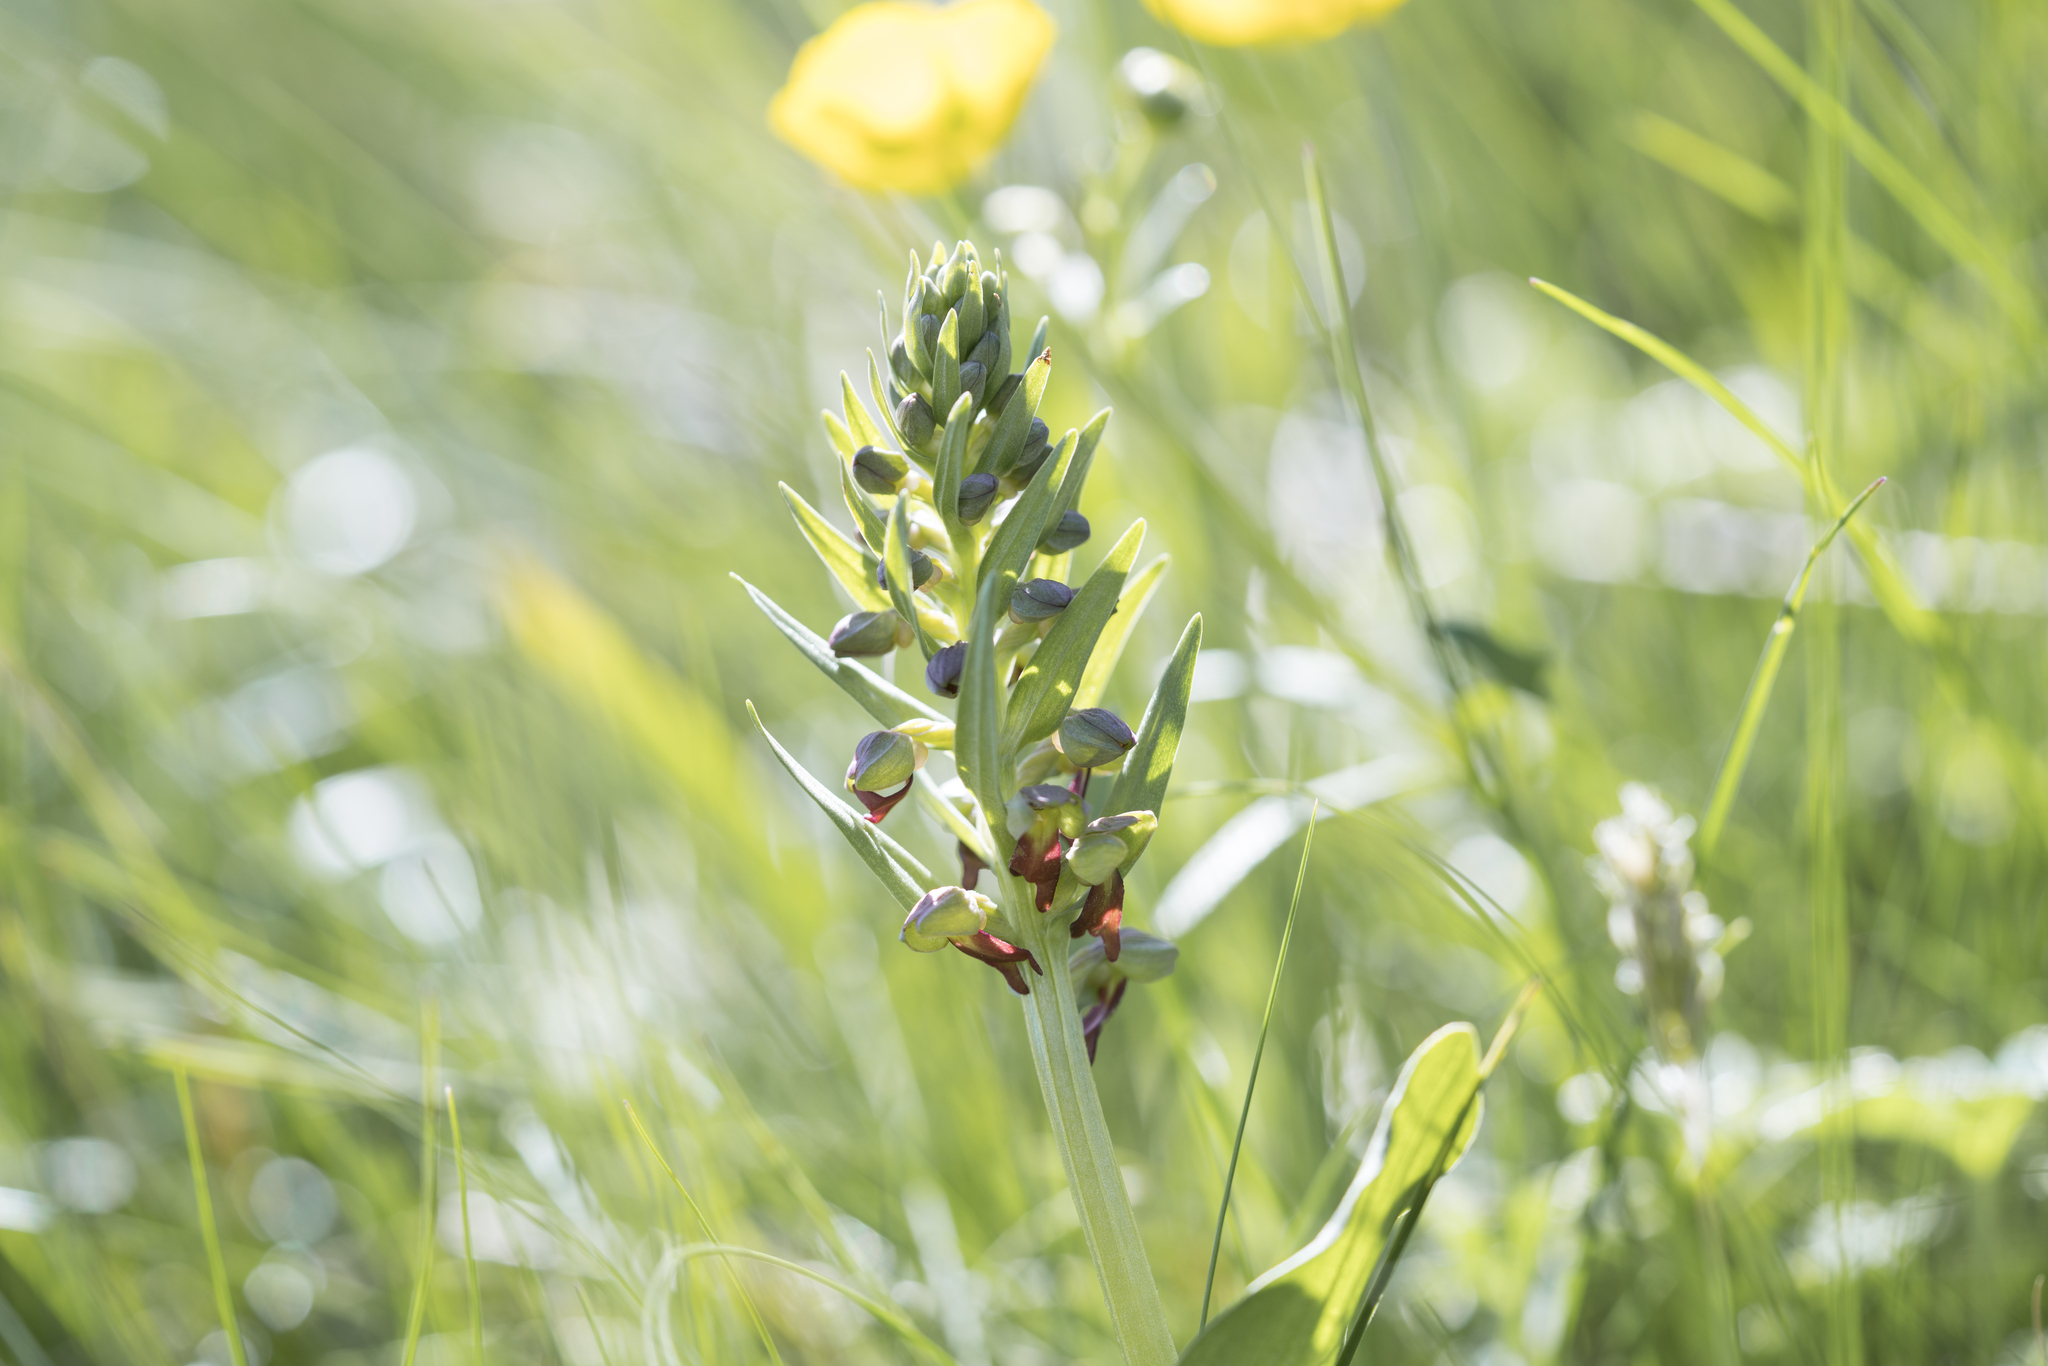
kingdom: Plantae
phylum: Tracheophyta
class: Liliopsida
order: Asparagales
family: Orchidaceae
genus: Dactylorhiza
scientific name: Dactylorhiza viridis
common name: Longbract frog orchid
